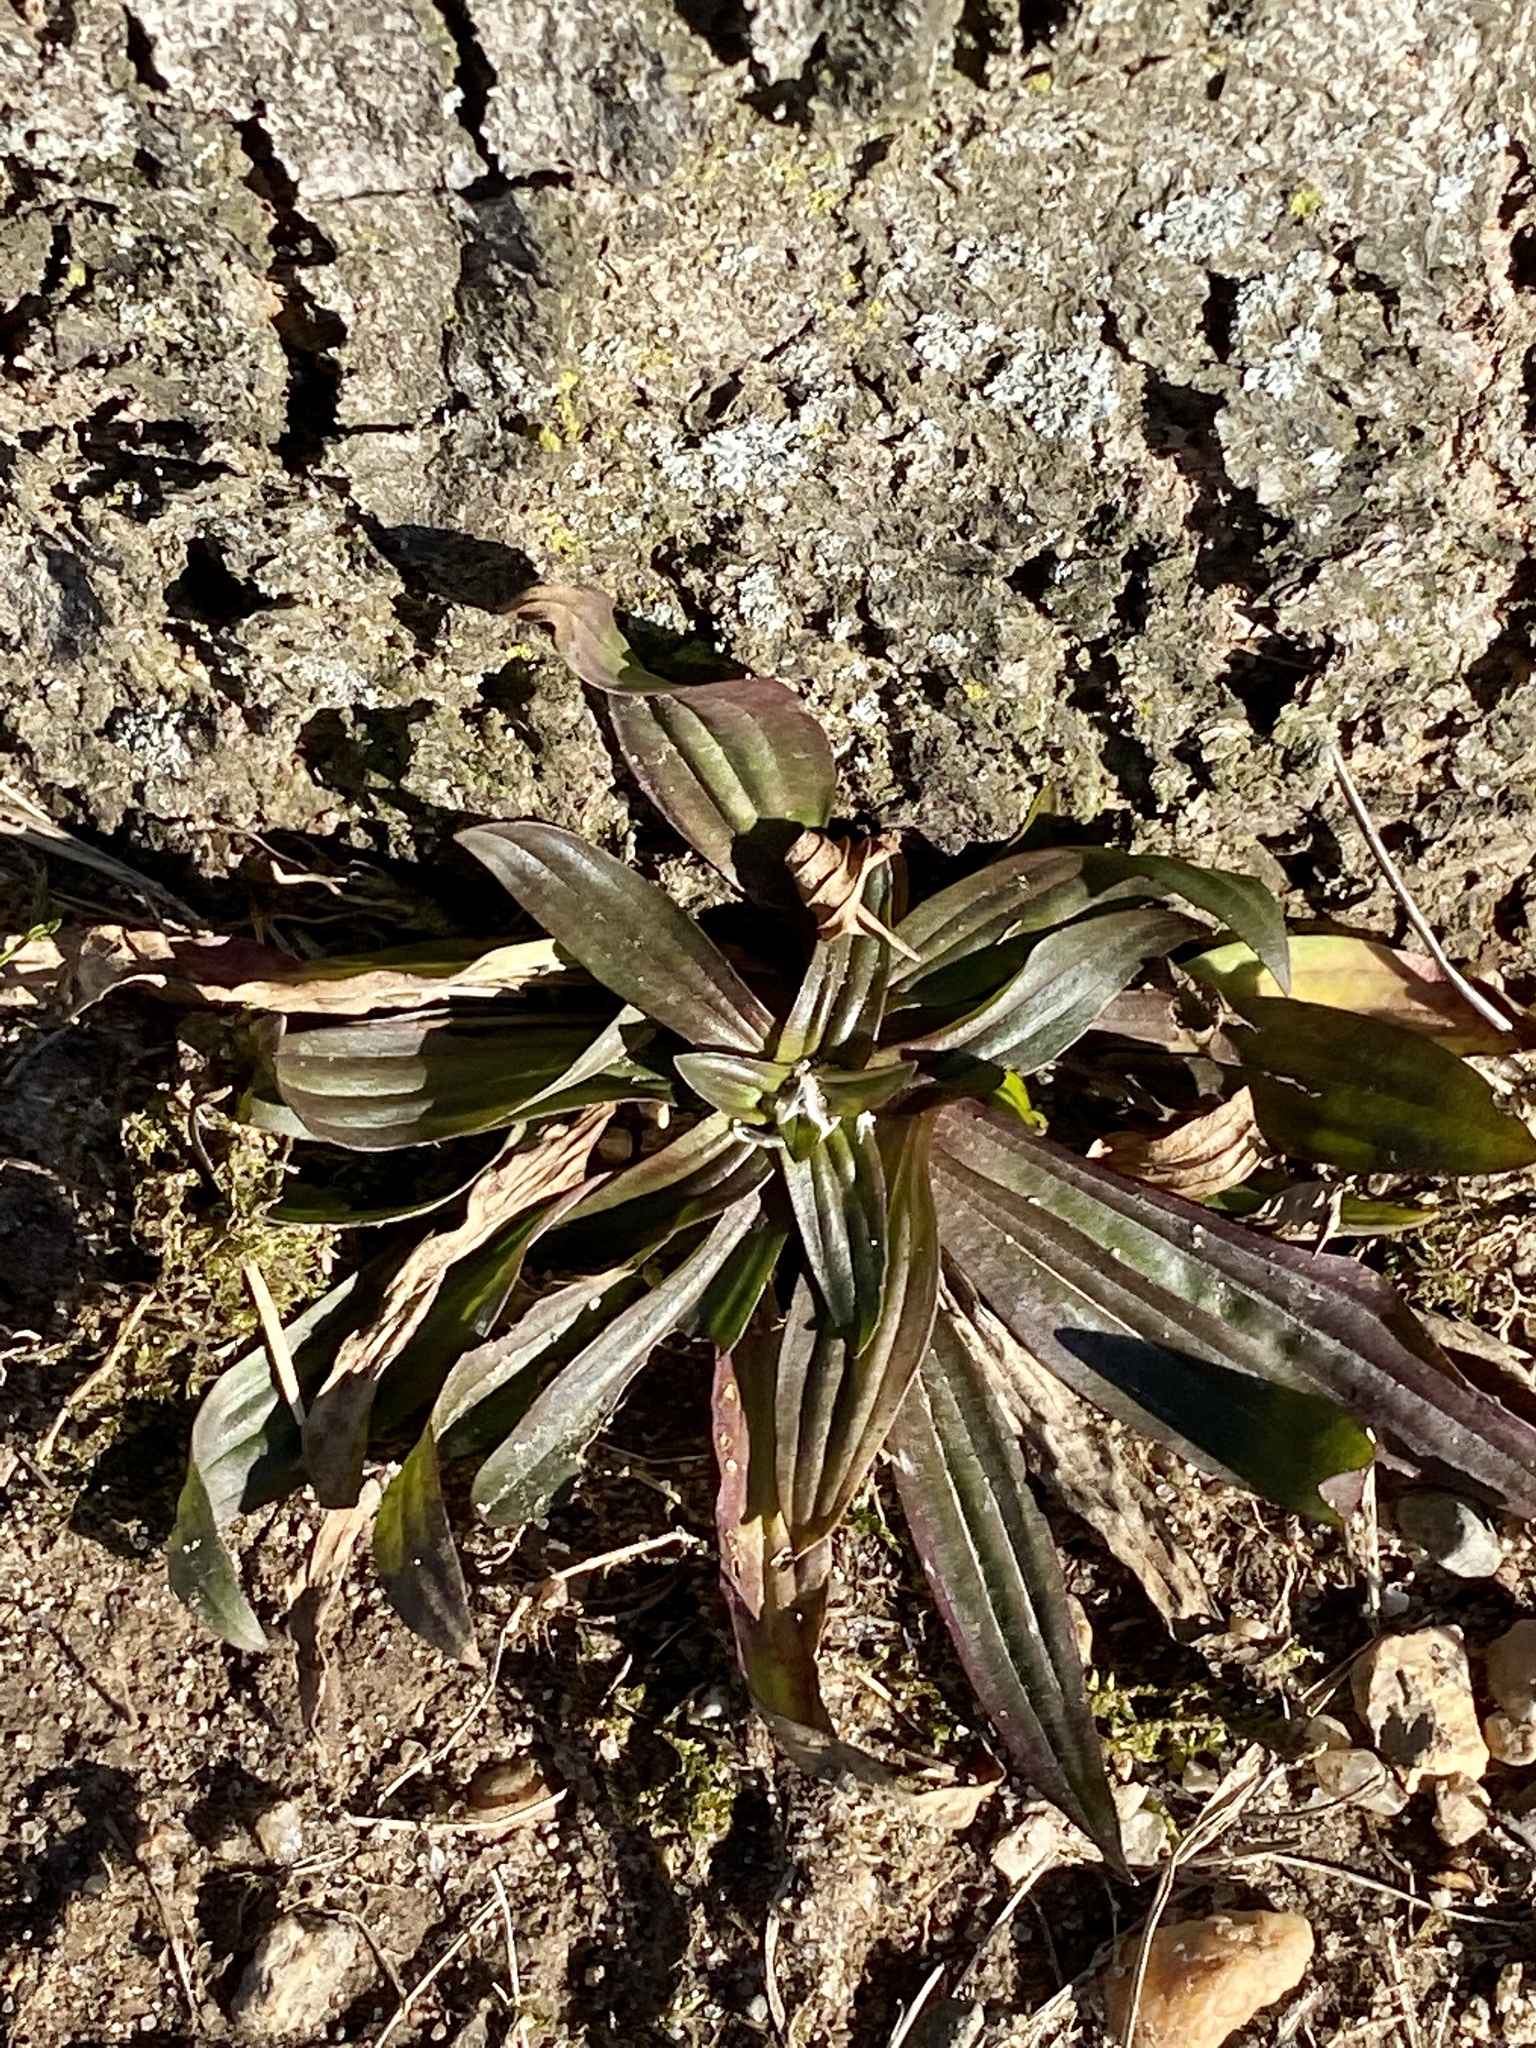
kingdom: Plantae
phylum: Tracheophyta
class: Magnoliopsida
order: Lamiales
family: Plantaginaceae
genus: Plantago
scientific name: Plantago lanceolata
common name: Ribwort plantain
